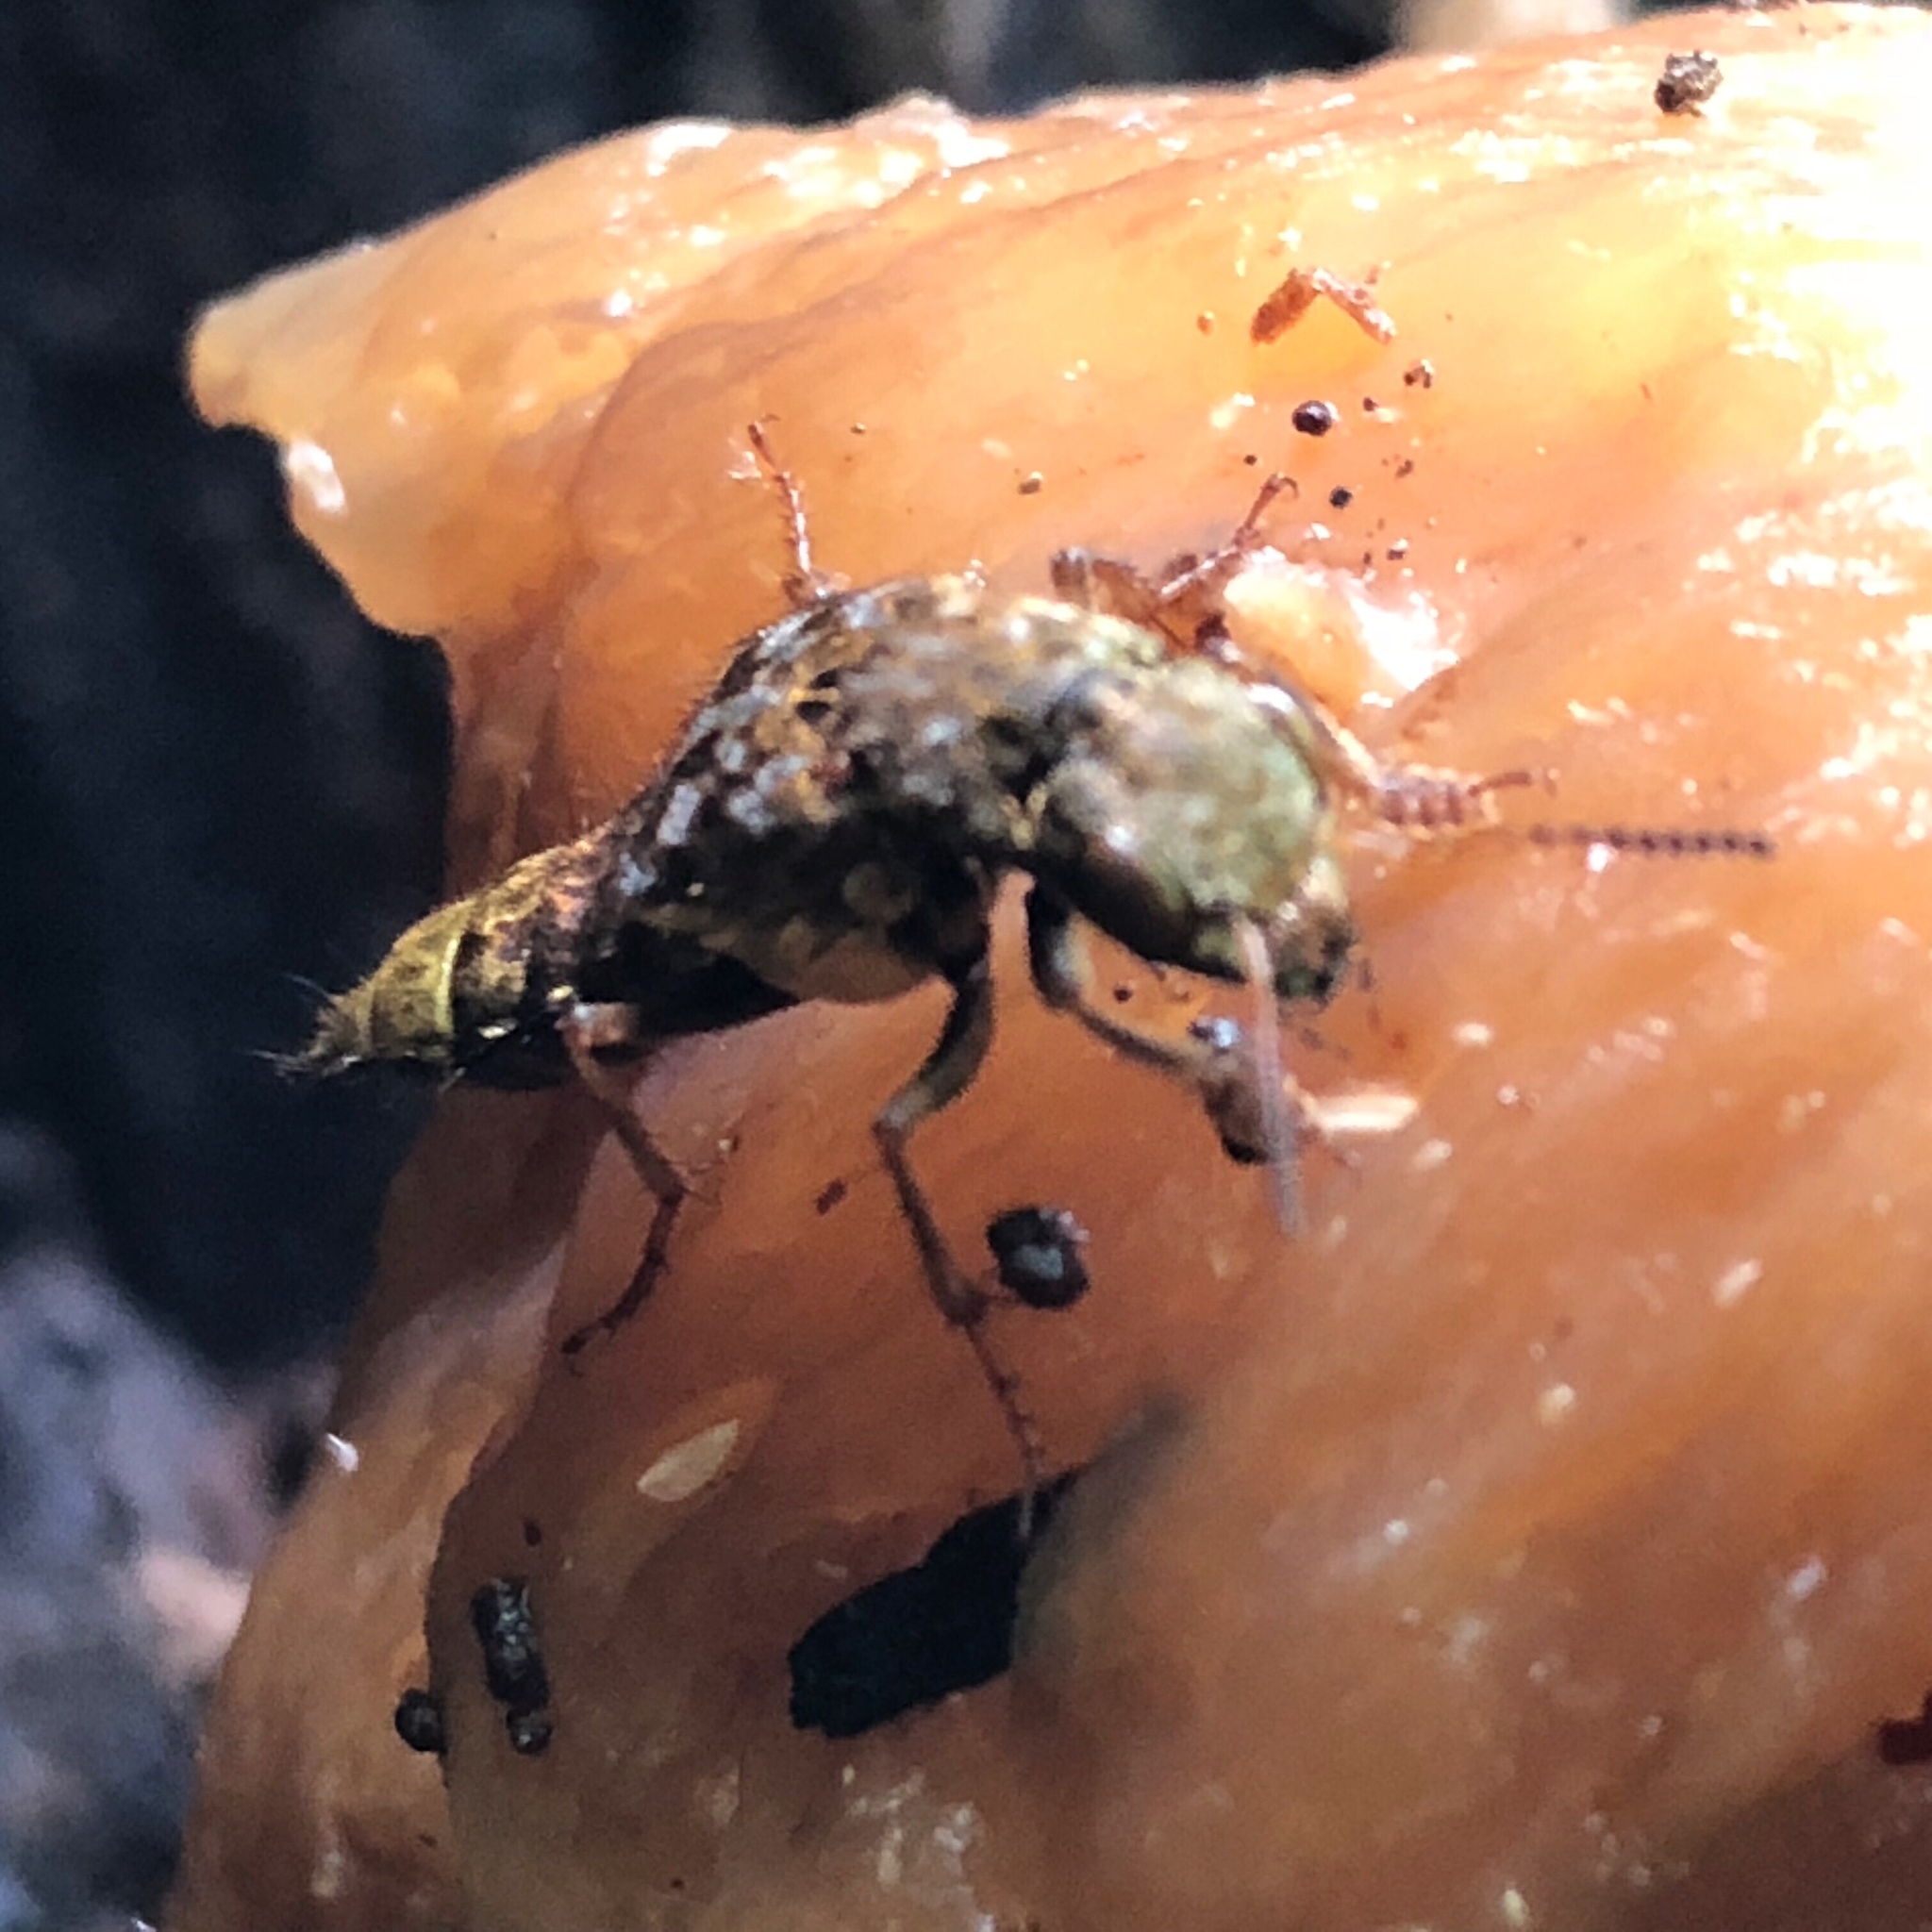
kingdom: Animalia
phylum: Arthropoda
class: Insecta
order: Coleoptera
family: Staphylinidae
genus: Ontholestes
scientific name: Ontholestes cingulatus
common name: Gold-and-brown rove beetle
